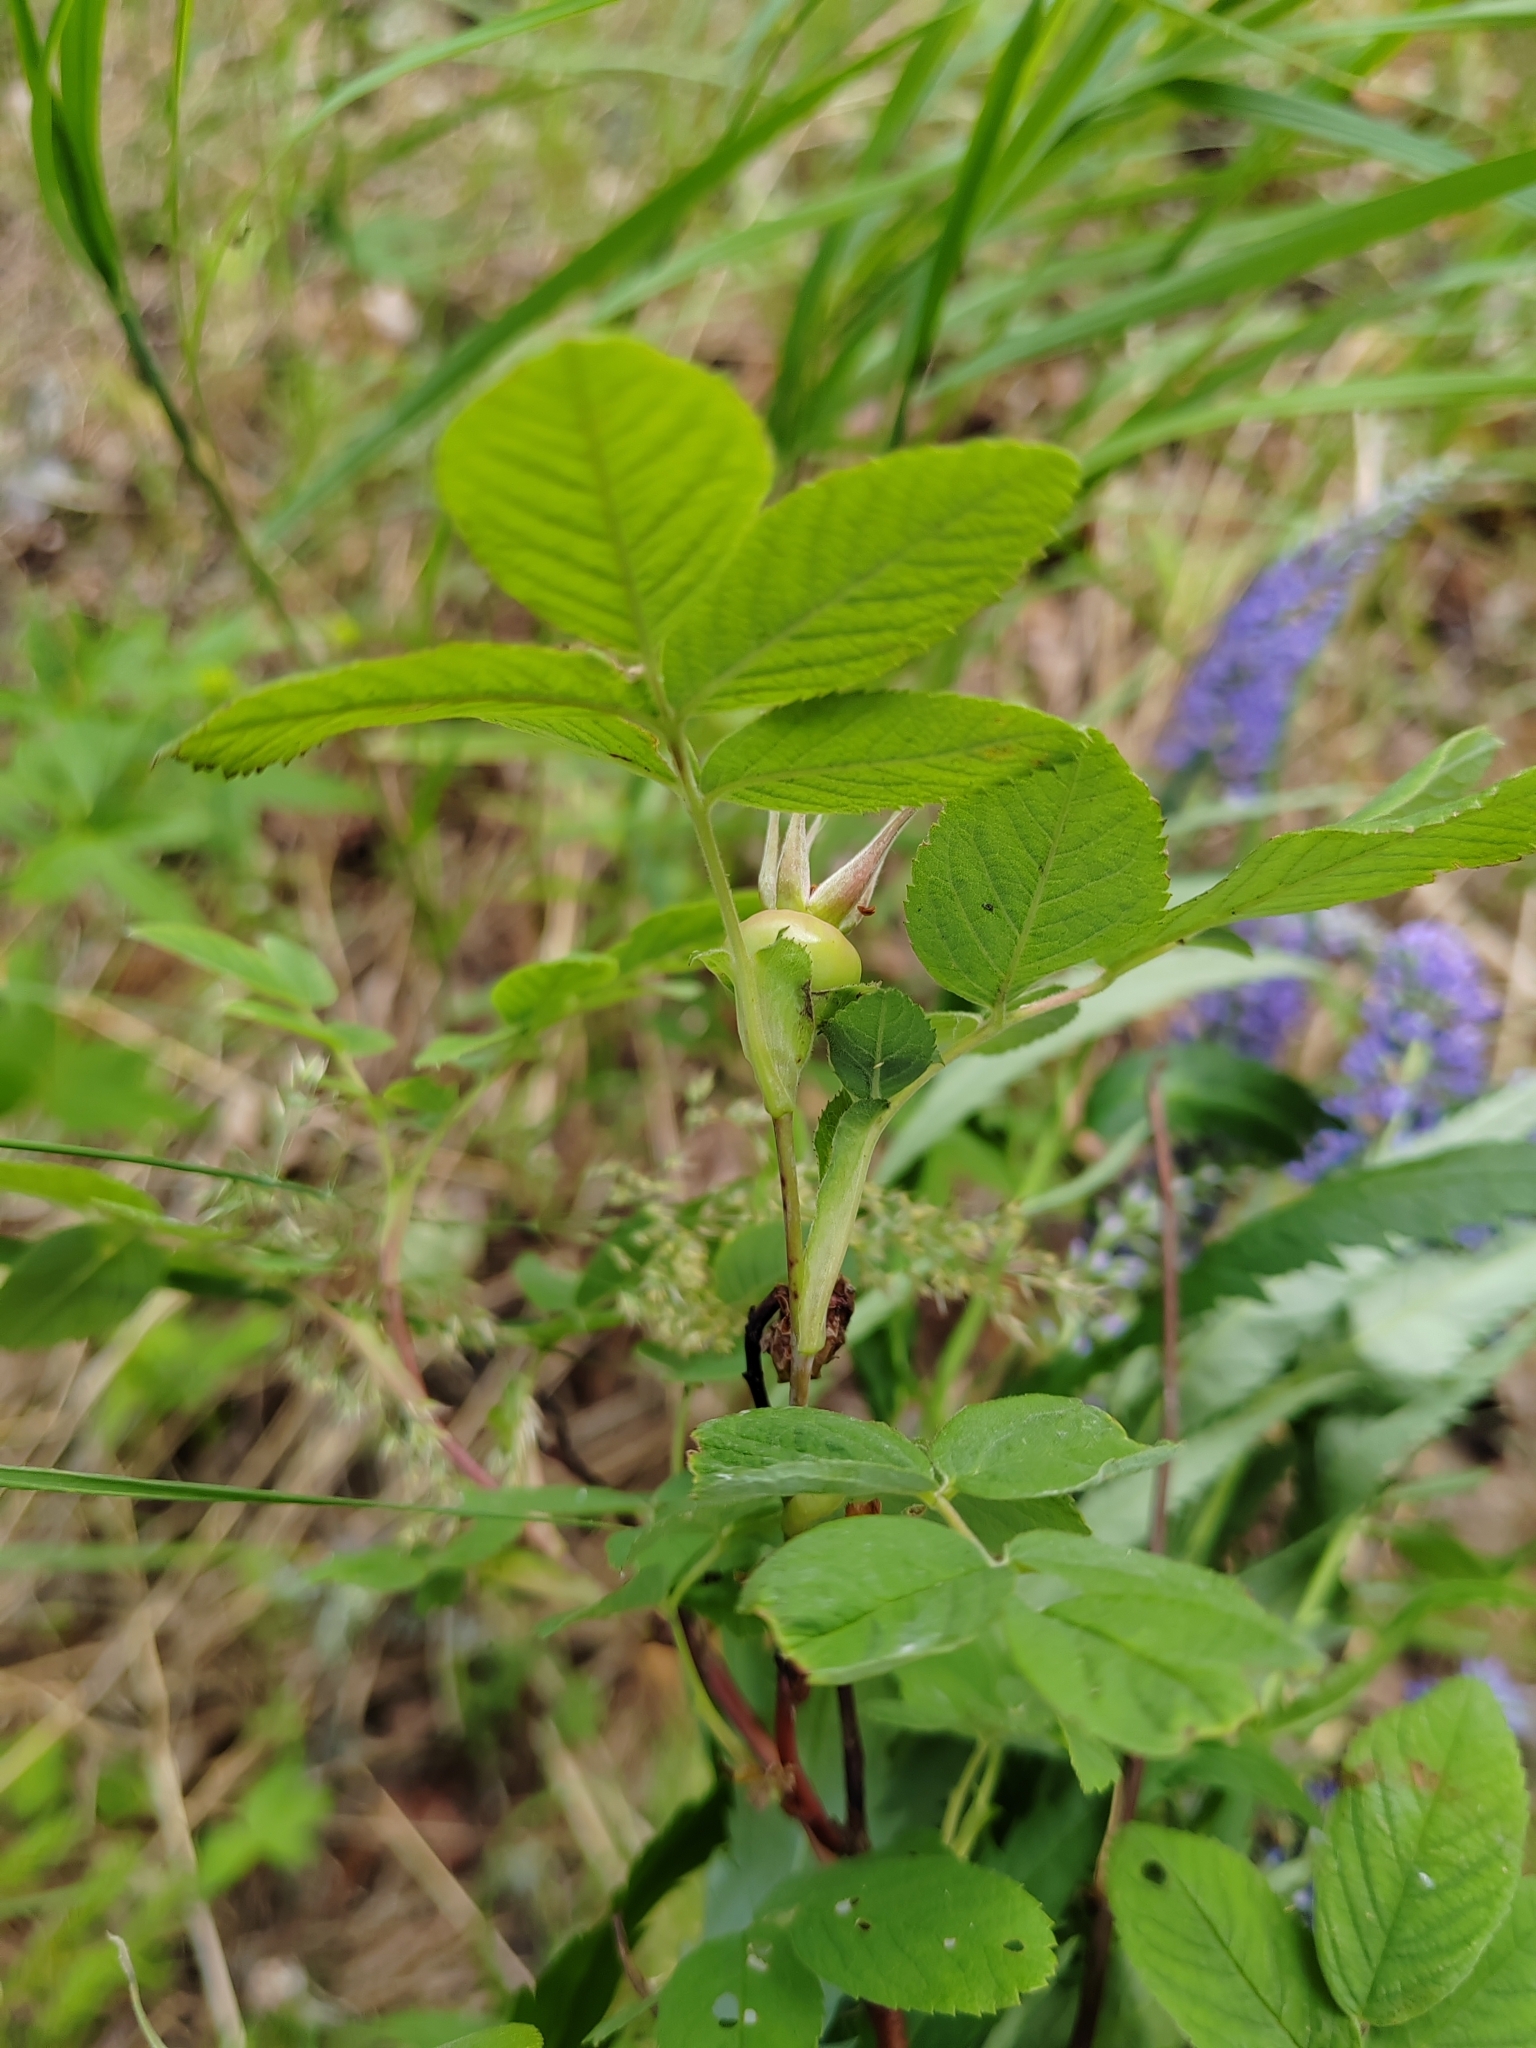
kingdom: Plantae
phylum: Tracheophyta
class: Magnoliopsida
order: Rosales
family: Rosaceae
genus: Rosa
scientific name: Rosa majalis
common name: Cinnamon rose
